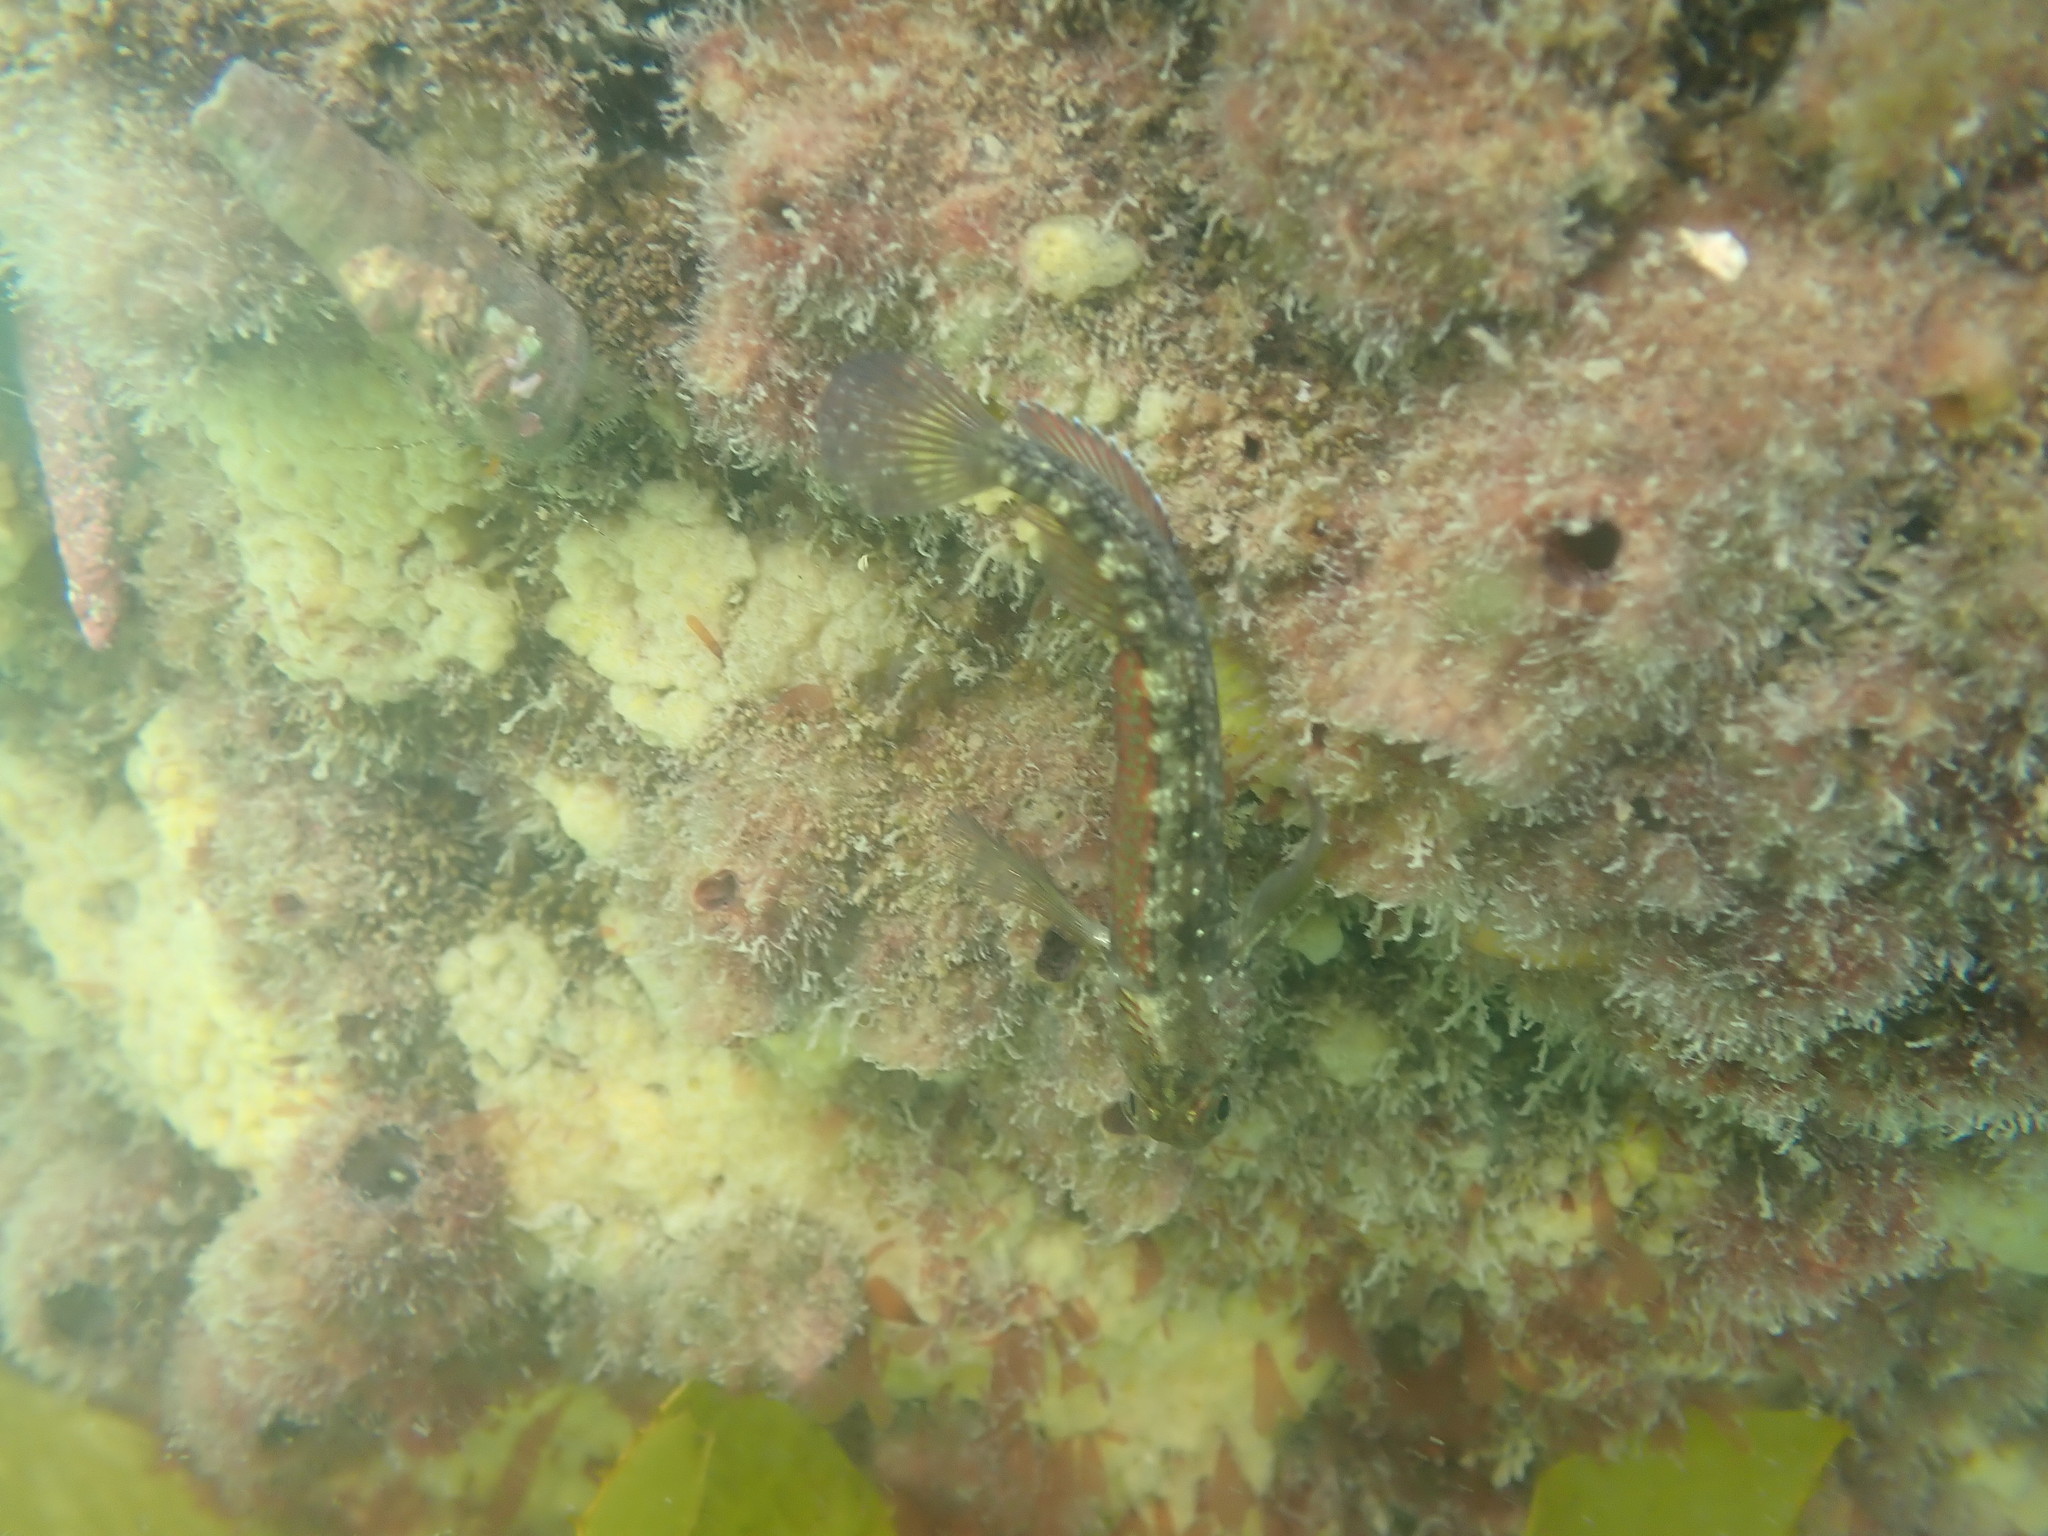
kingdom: Animalia
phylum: Chordata
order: Perciformes
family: Tripterygiidae
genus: Forsterygion
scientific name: Forsterygion lapillum
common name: Common triplefin
